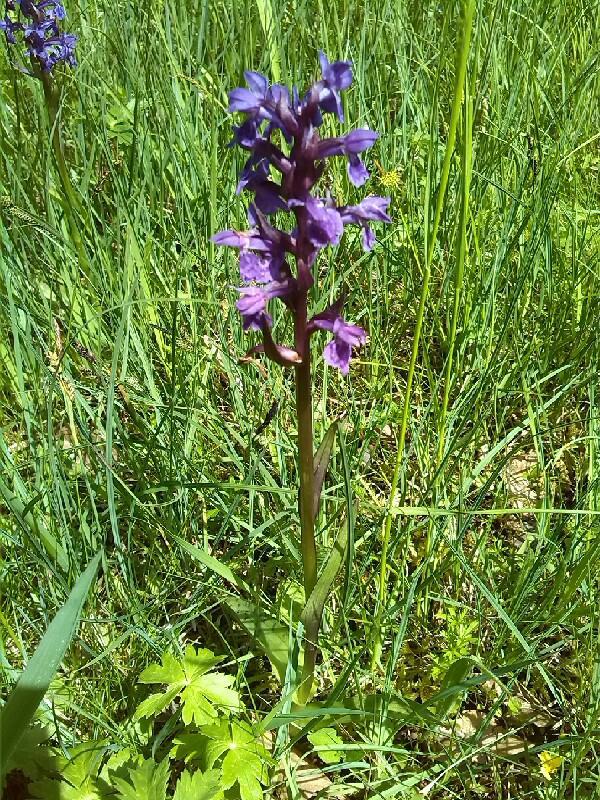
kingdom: Plantae
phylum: Tracheophyta
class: Liliopsida
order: Asparagales
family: Orchidaceae
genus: Dactylorhiza
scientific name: Dactylorhiza majalis
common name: Marsh orchid
